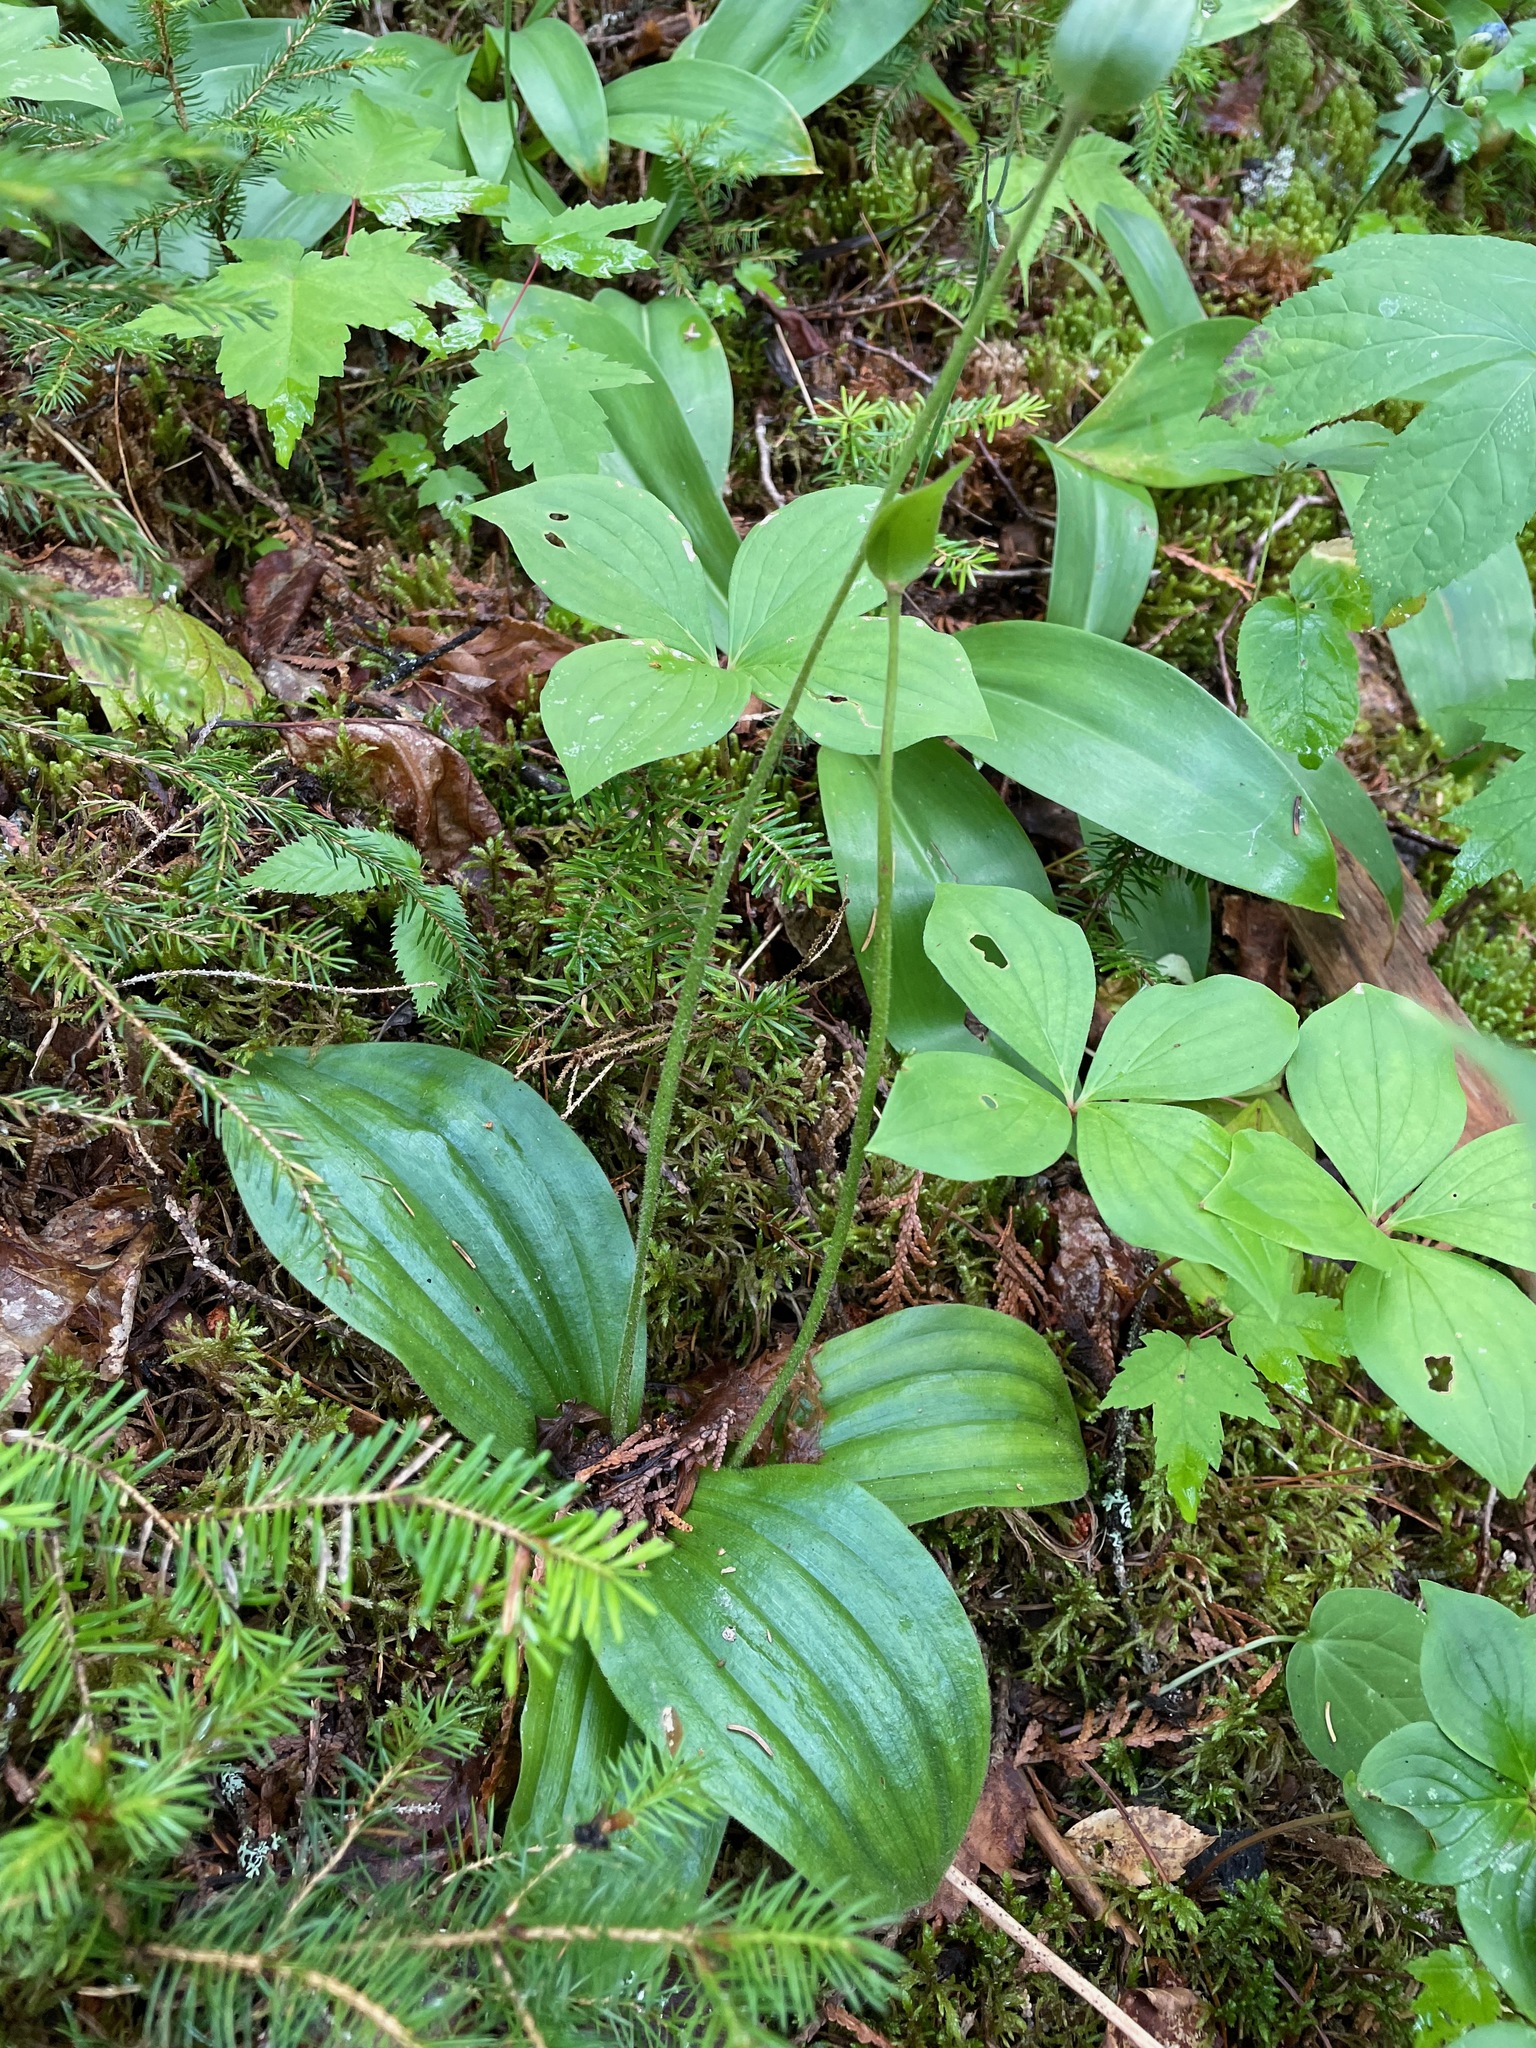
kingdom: Plantae
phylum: Tracheophyta
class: Liliopsida
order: Asparagales
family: Orchidaceae
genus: Cypripedium
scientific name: Cypripedium acaule
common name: Pink lady's-slipper
